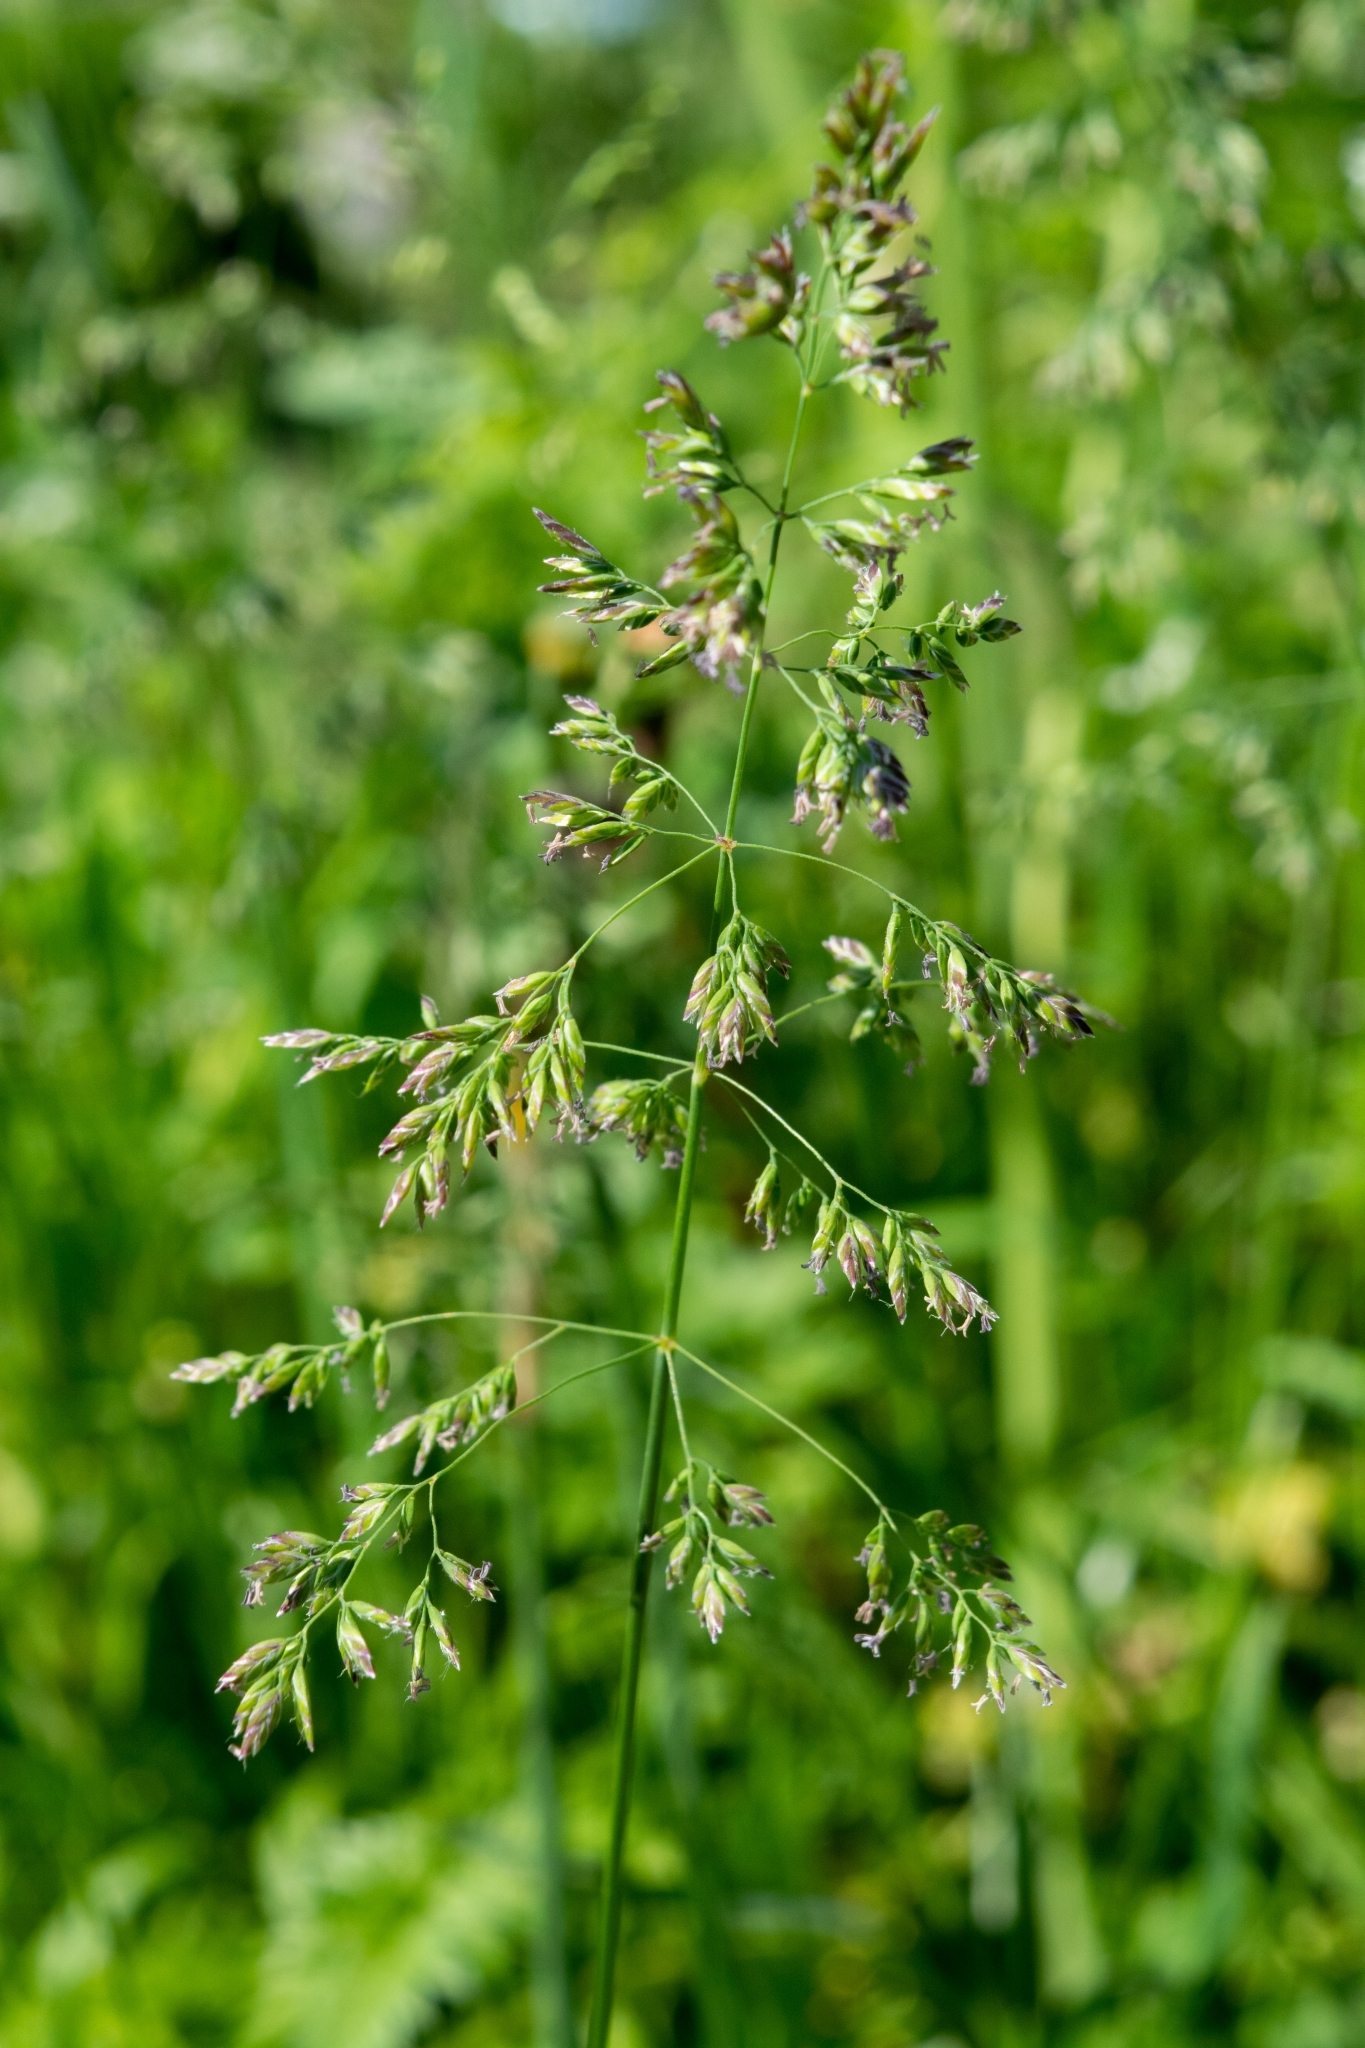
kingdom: Plantae
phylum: Tracheophyta
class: Liliopsida
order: Poales
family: Poaceae
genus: Poa
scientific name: Poa pratensis
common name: Kentucky bluegrass
